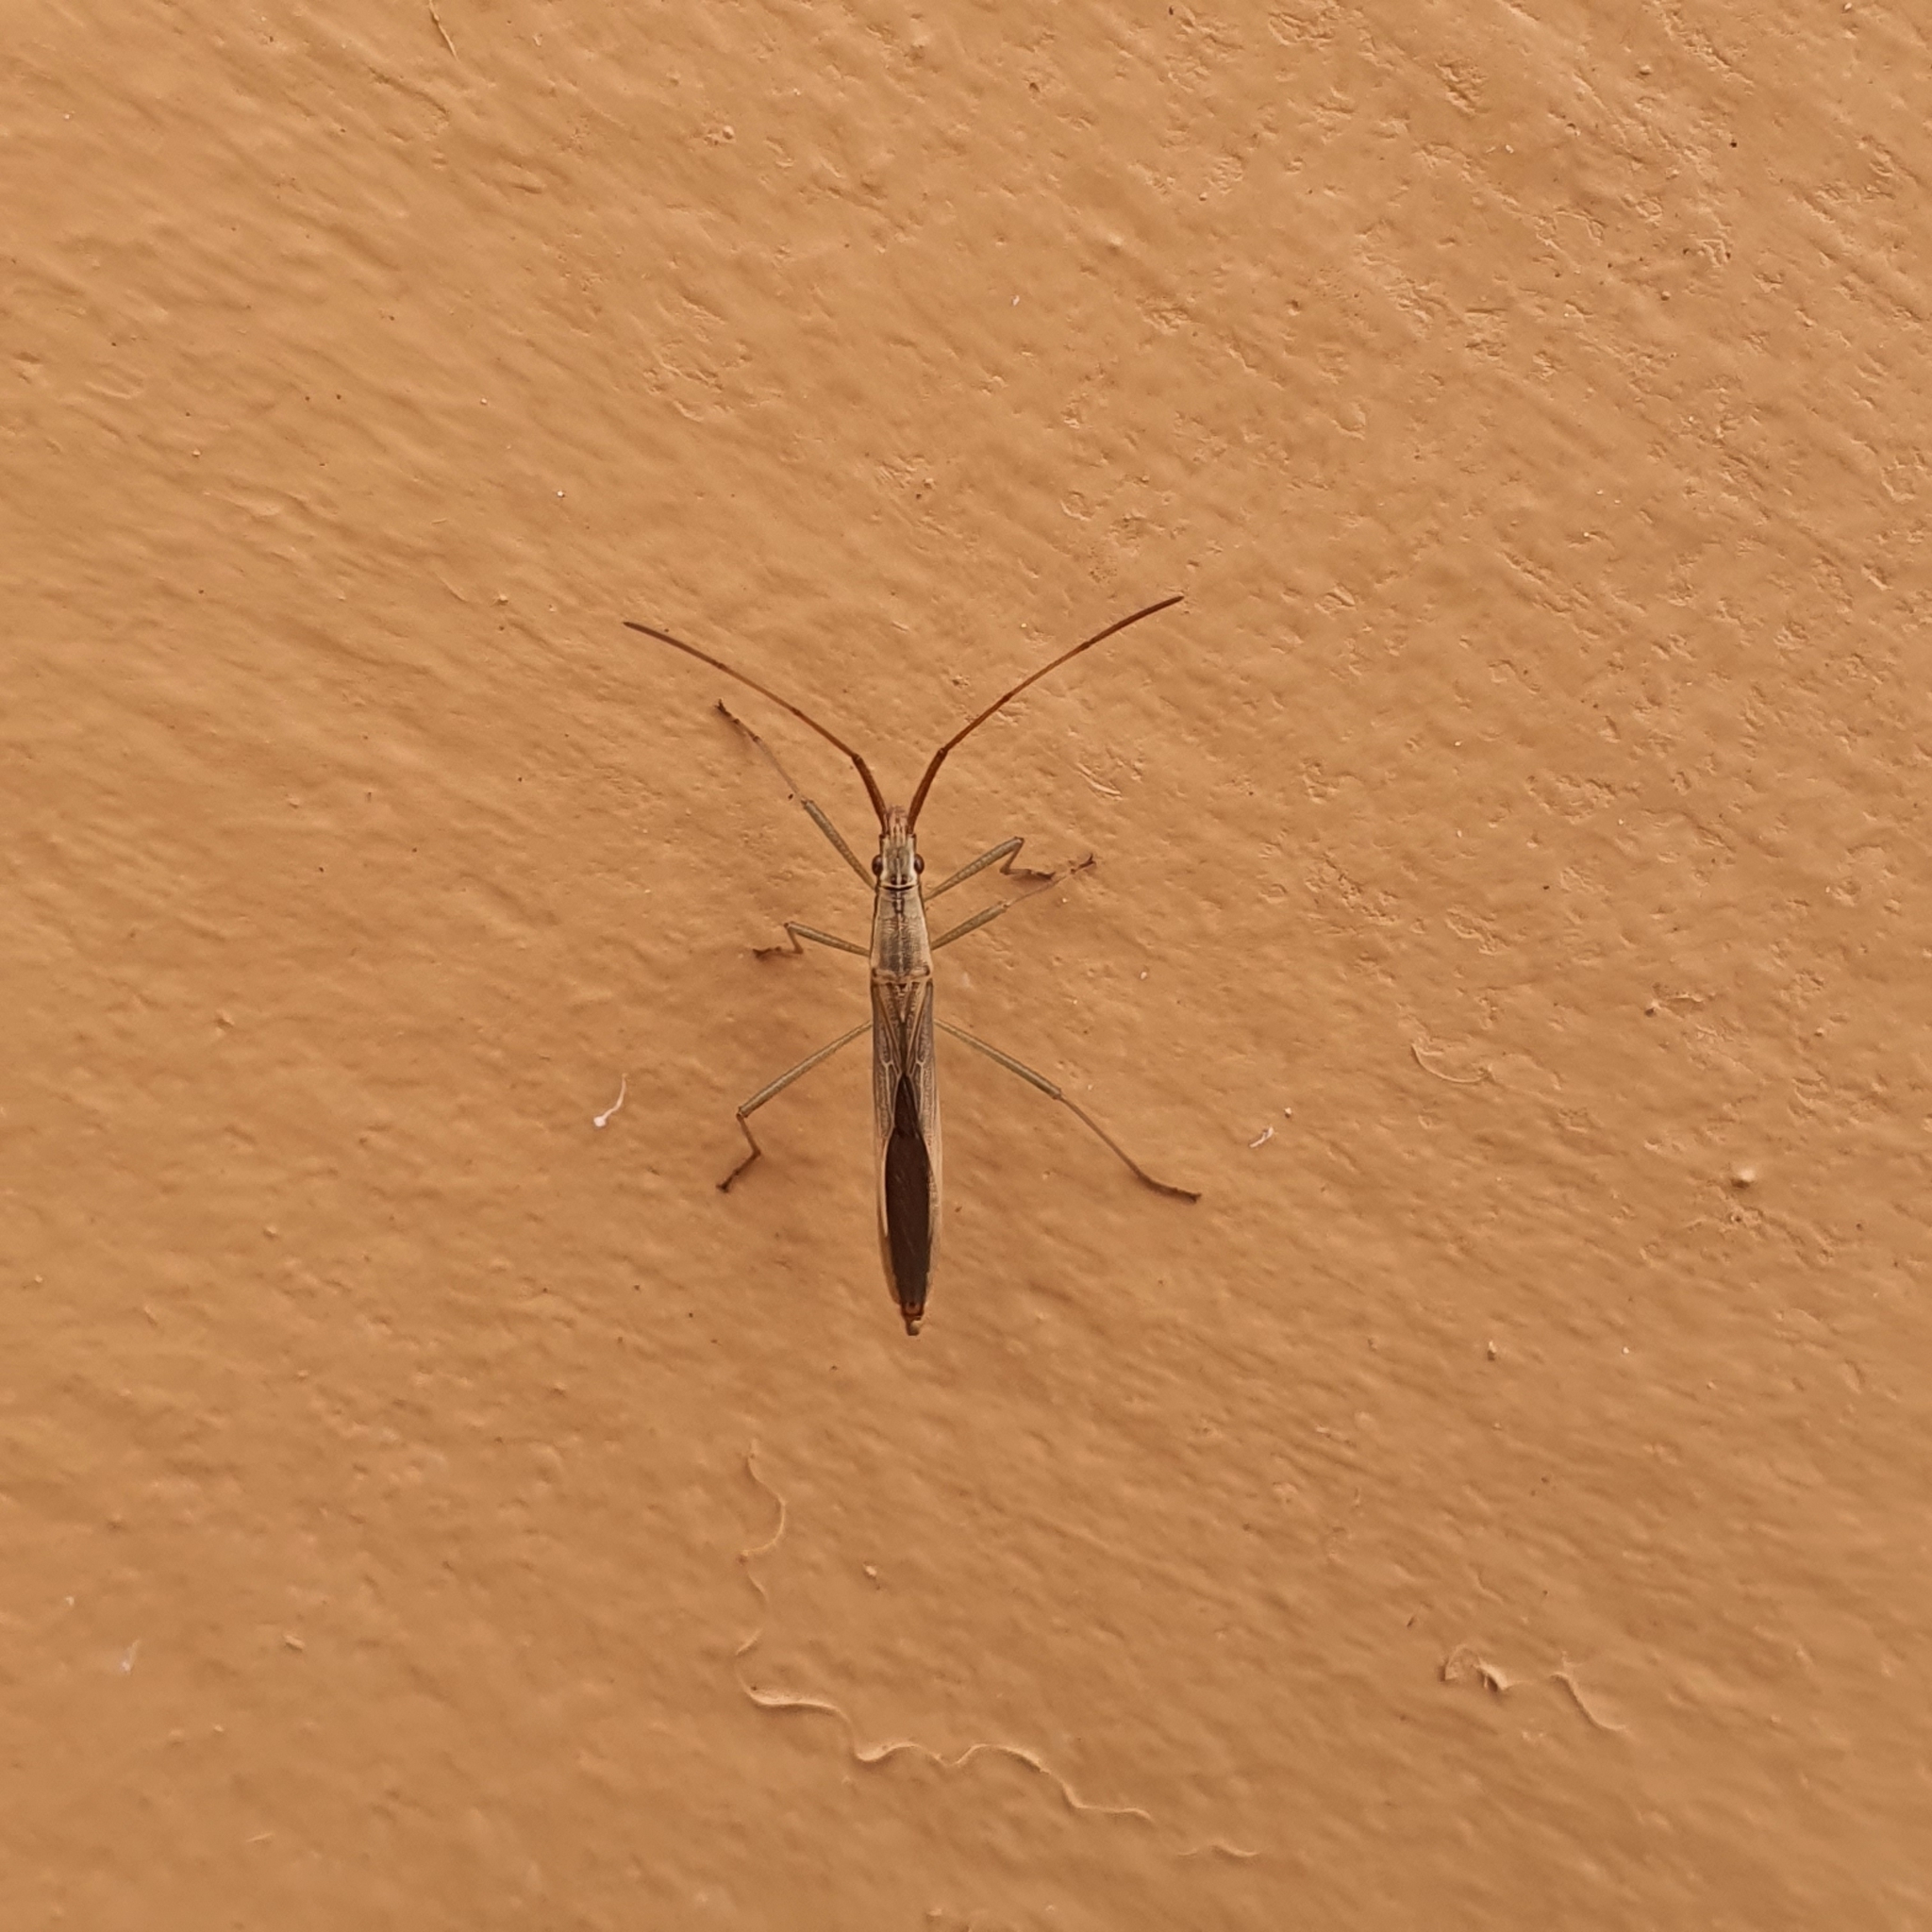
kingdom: Animalia
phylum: Arthropoda
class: Insecta
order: Hemiptera
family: Alydidae
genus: Mutusca
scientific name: Mutusca brevicornis
